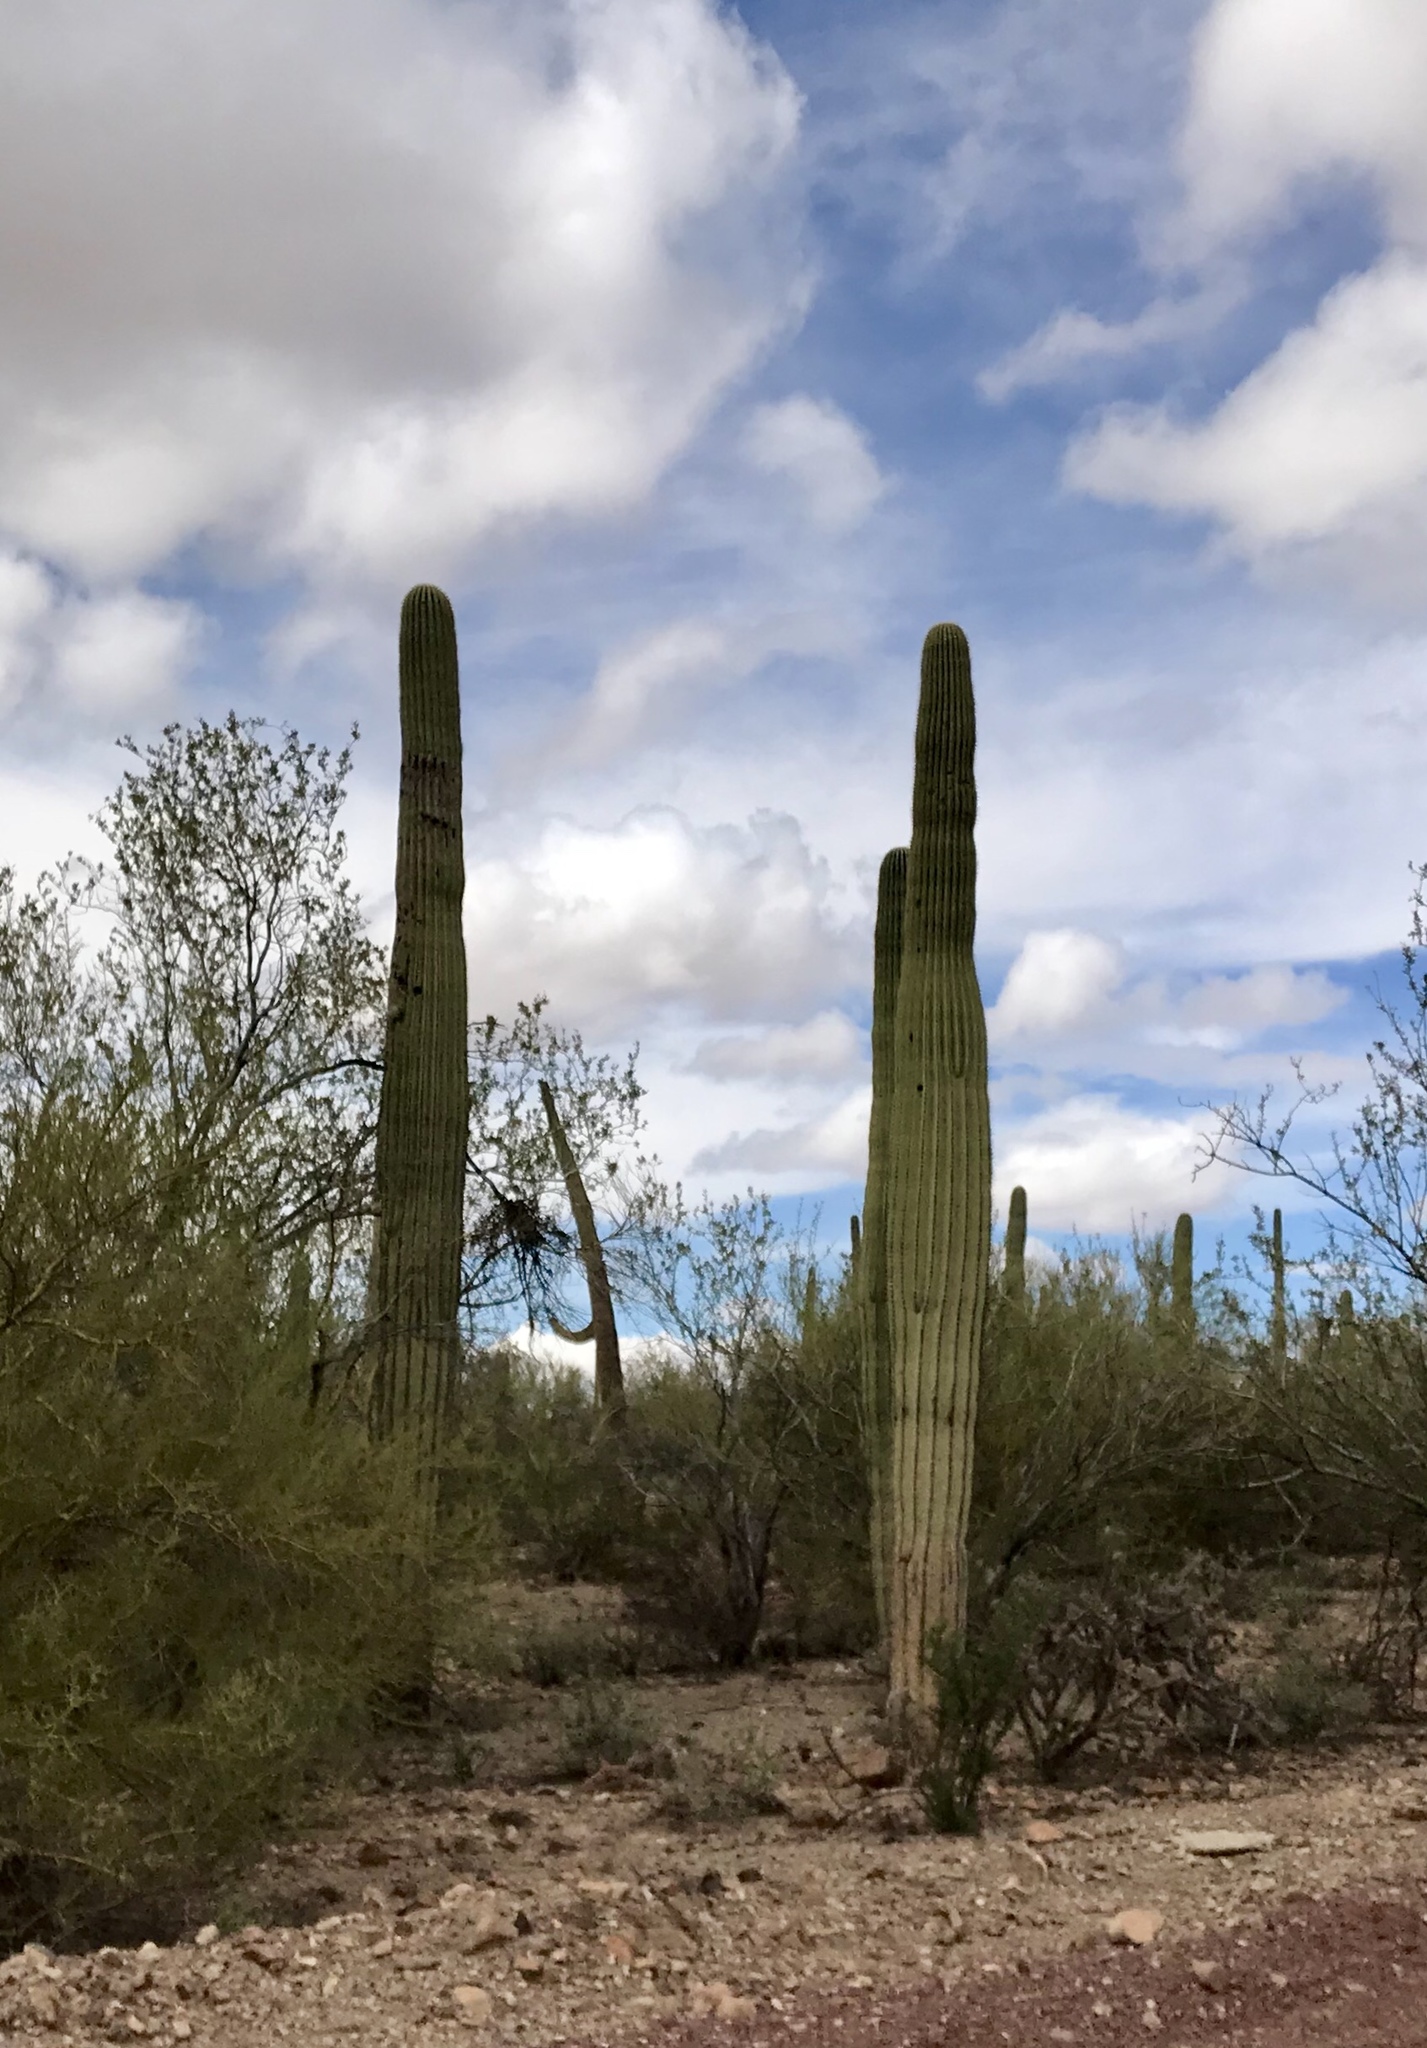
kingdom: Plantae
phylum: Tracheophyta
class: Magnoliopsida
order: Caryophyllales
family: Cactaceae
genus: Carnegiea
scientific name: Carnegiea gigantea
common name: Saguaro
